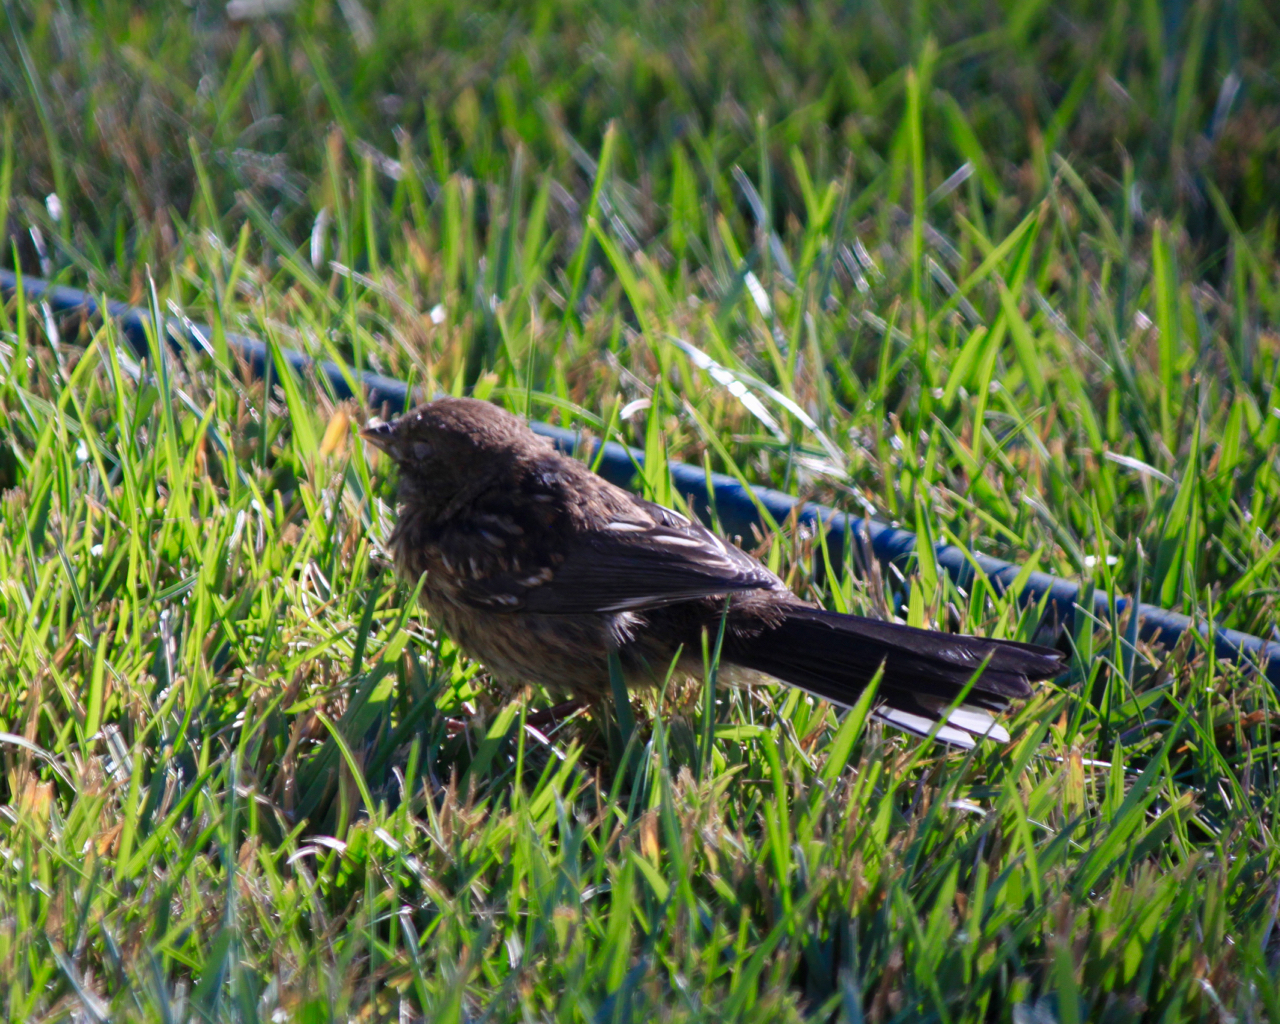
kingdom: Animalia
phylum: Chordata
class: Aves
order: Passeriformes
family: Passerellidae
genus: Pipilo
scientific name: Pipilo maculatus
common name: Spotted towhee
